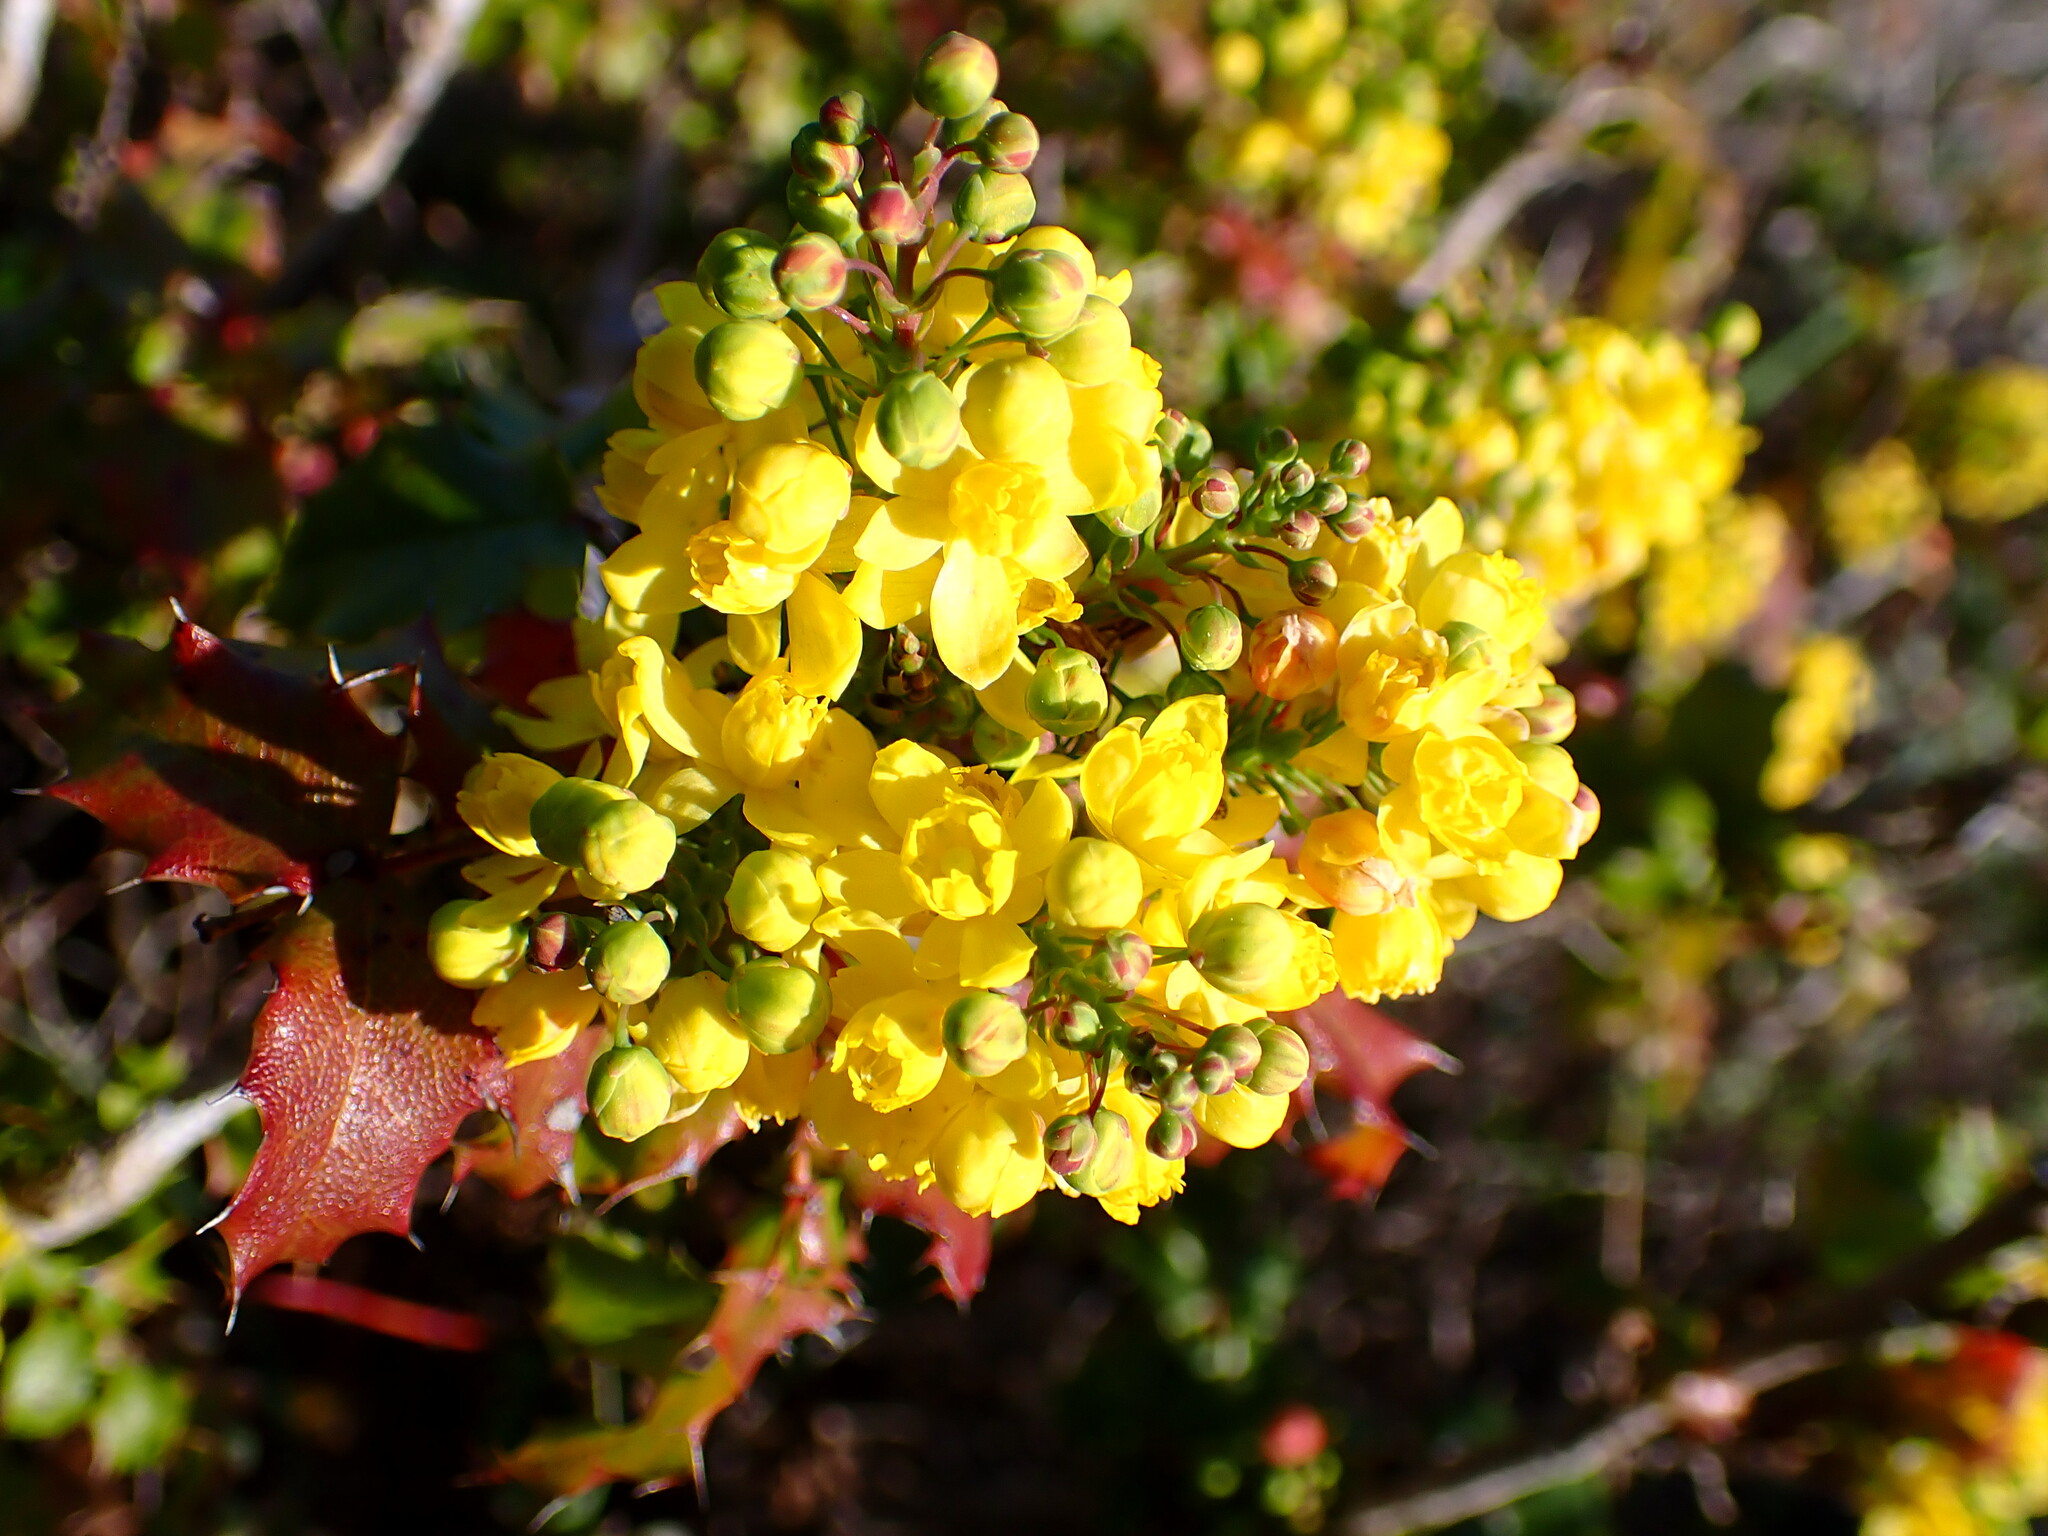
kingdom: Plantae
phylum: Tracheophyta
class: Magnoliopsida
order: Ranunculales
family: Berberidaceae
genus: Mahonia
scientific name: Mahonia
